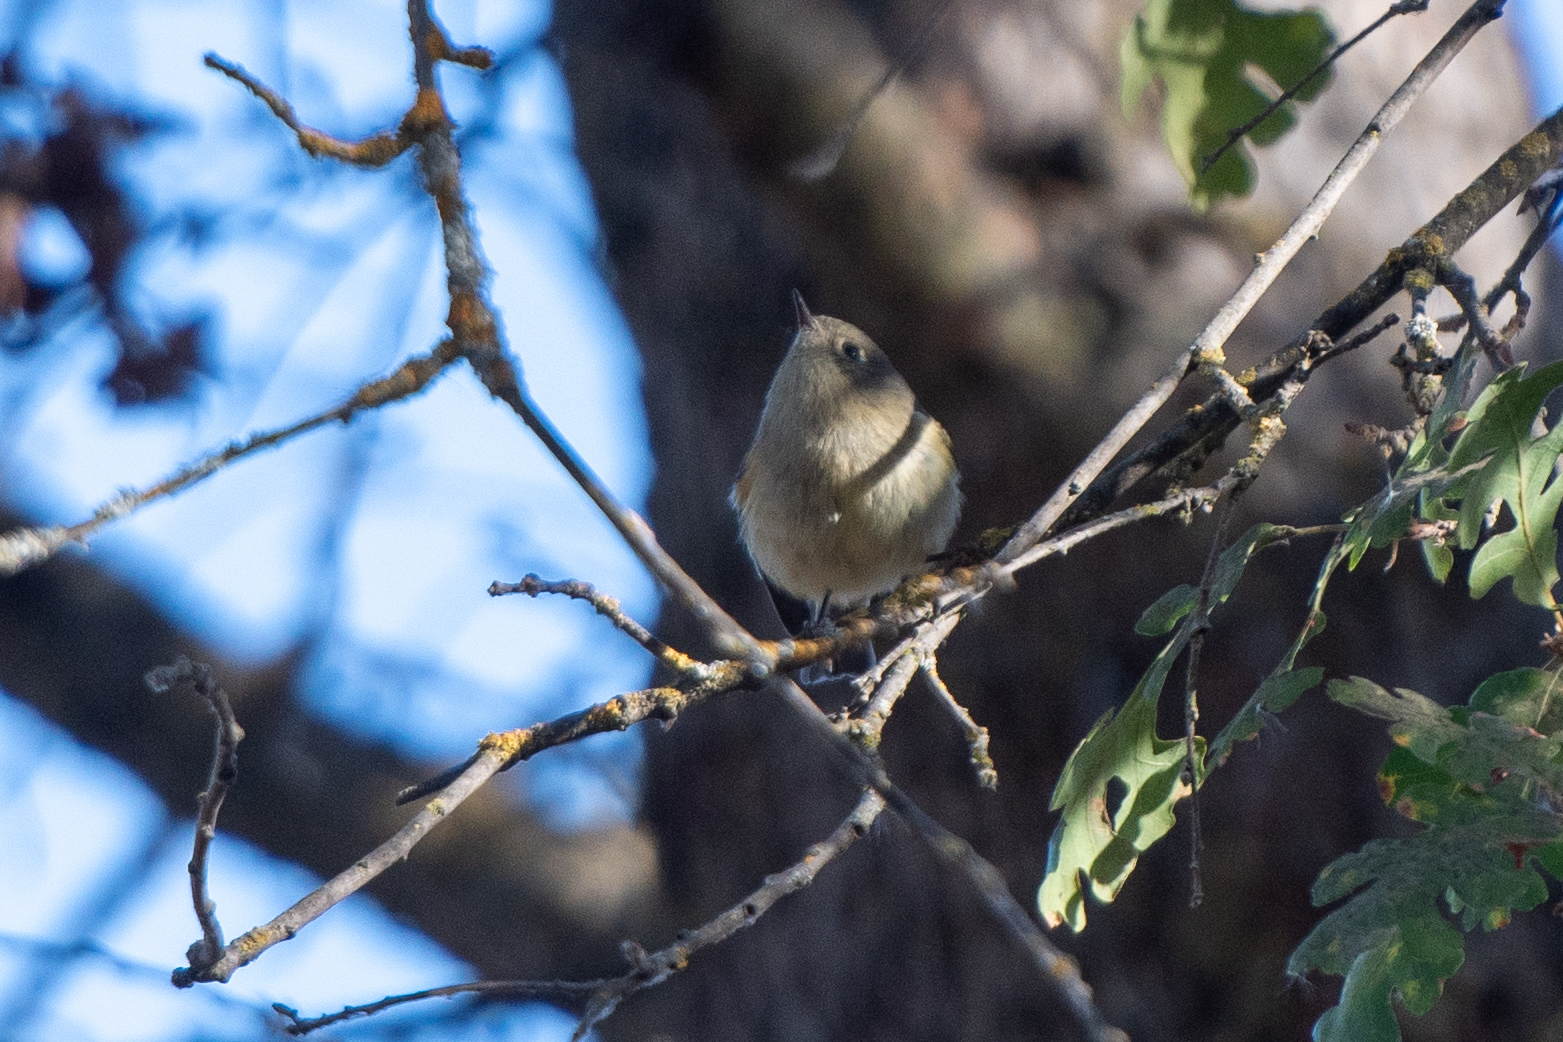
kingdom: Animalia
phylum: Chordata
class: Aves
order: Passeriformes
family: Regulidae
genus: Regulus
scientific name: Regulus calendula
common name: Ruby-crowned kinglet
